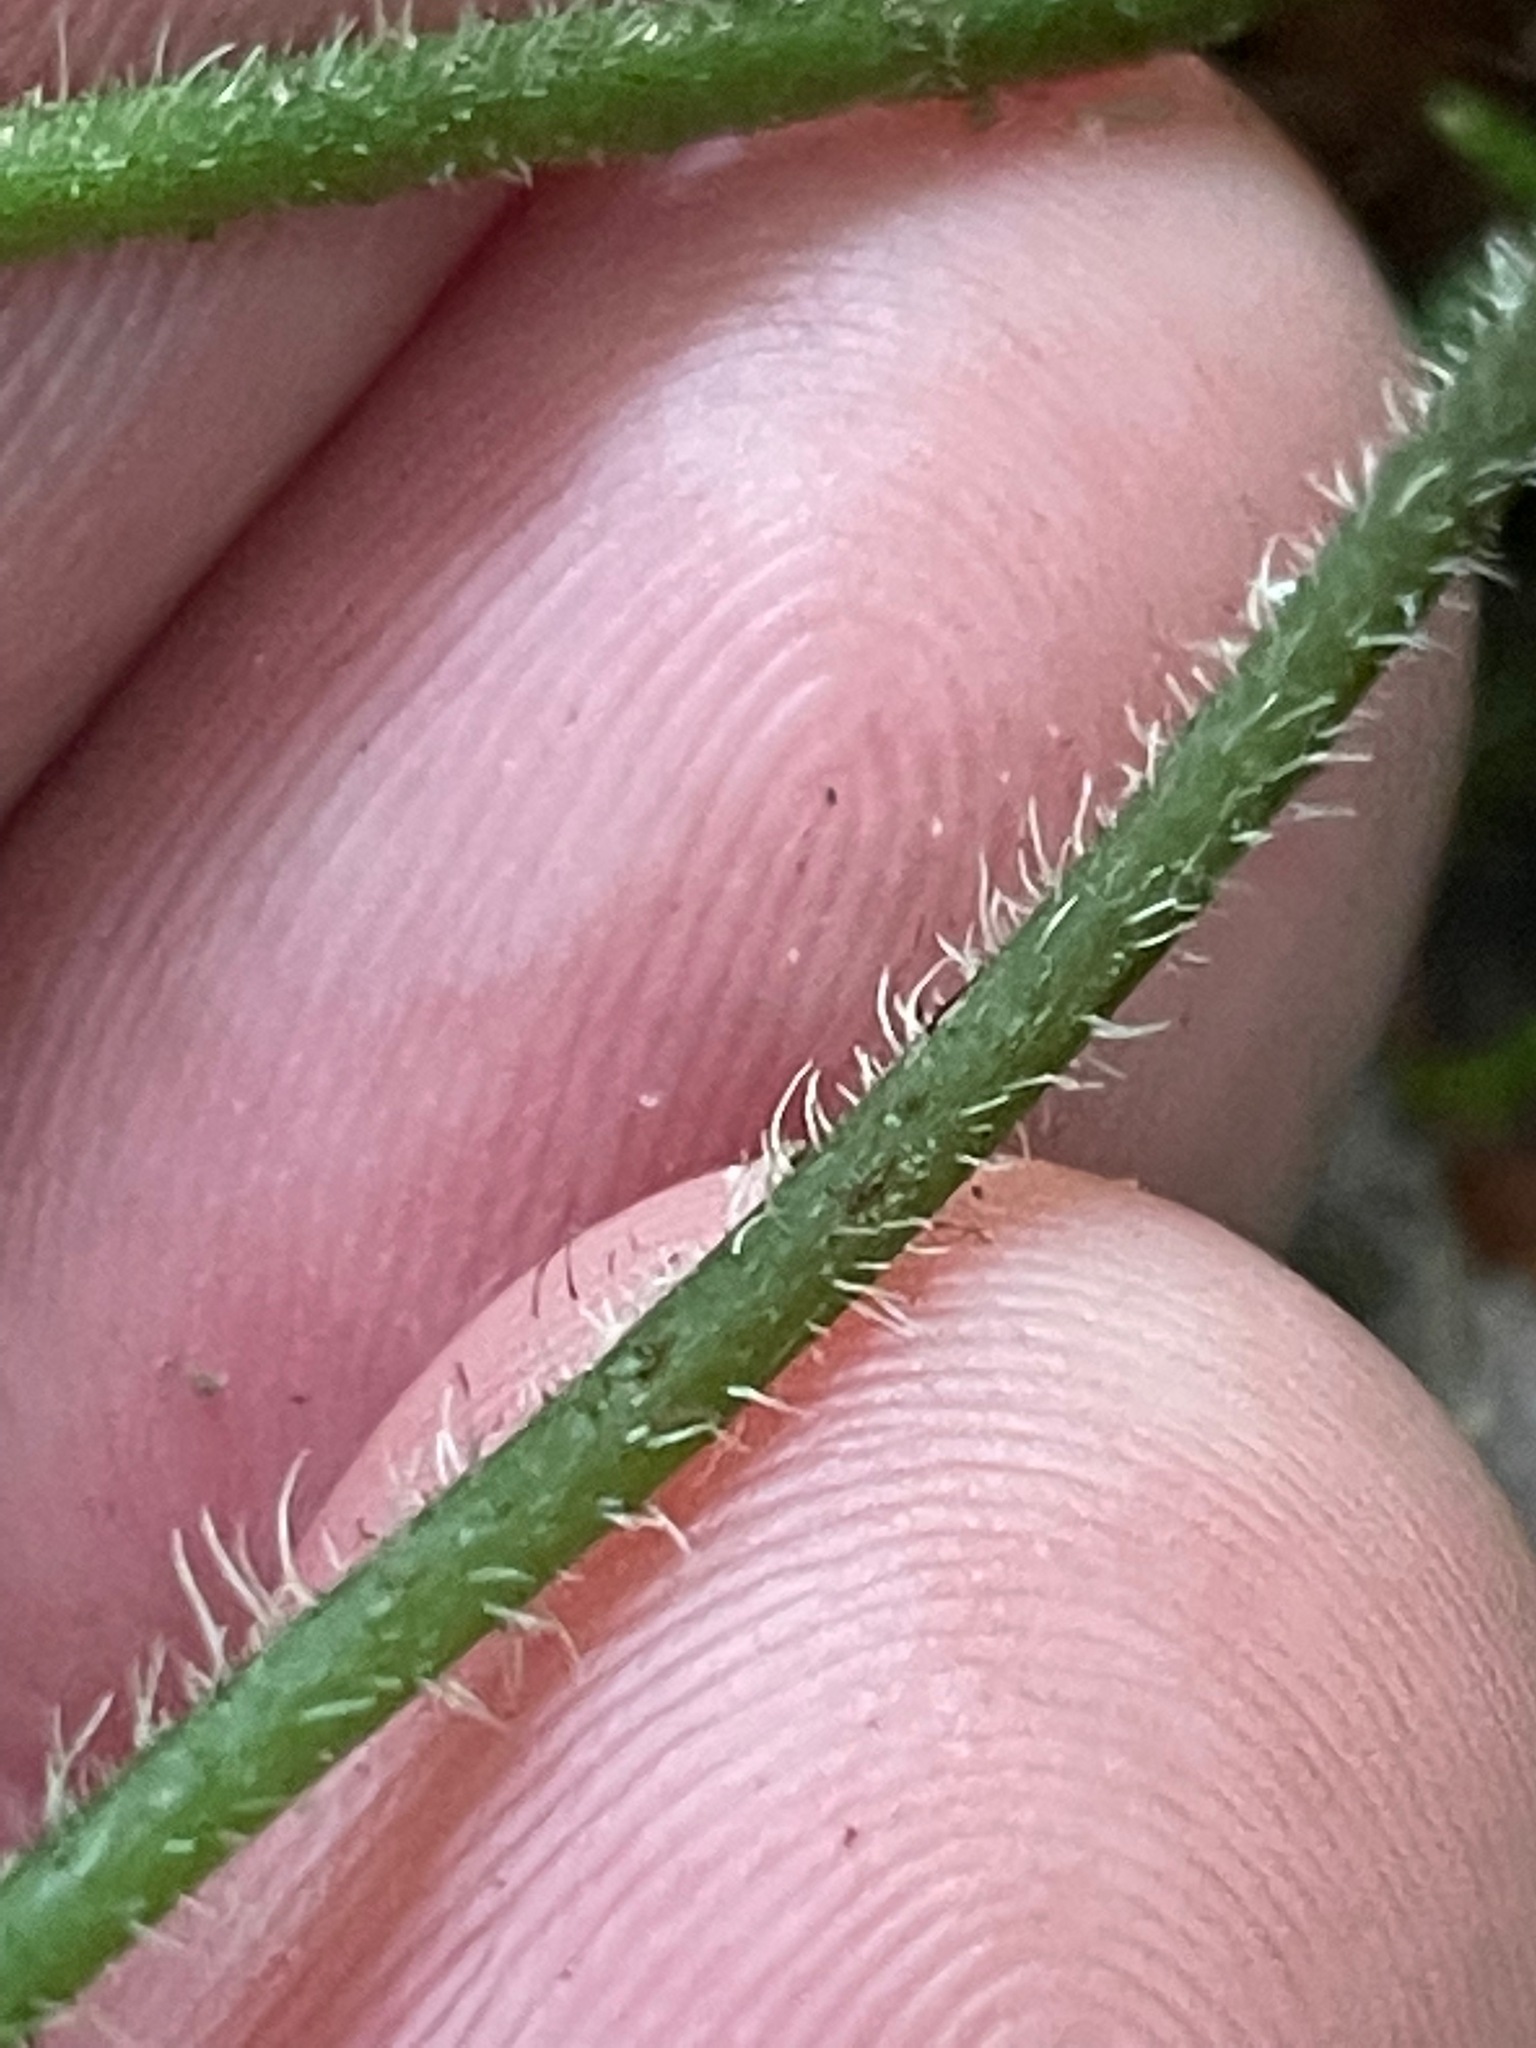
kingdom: Plantae
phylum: Tracheophyta
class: Magnoliopsida
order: Saxifragales
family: Saxifragaceae
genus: Tiarella
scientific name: Tiarella stolonifera
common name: Stoloniferous foamflower
